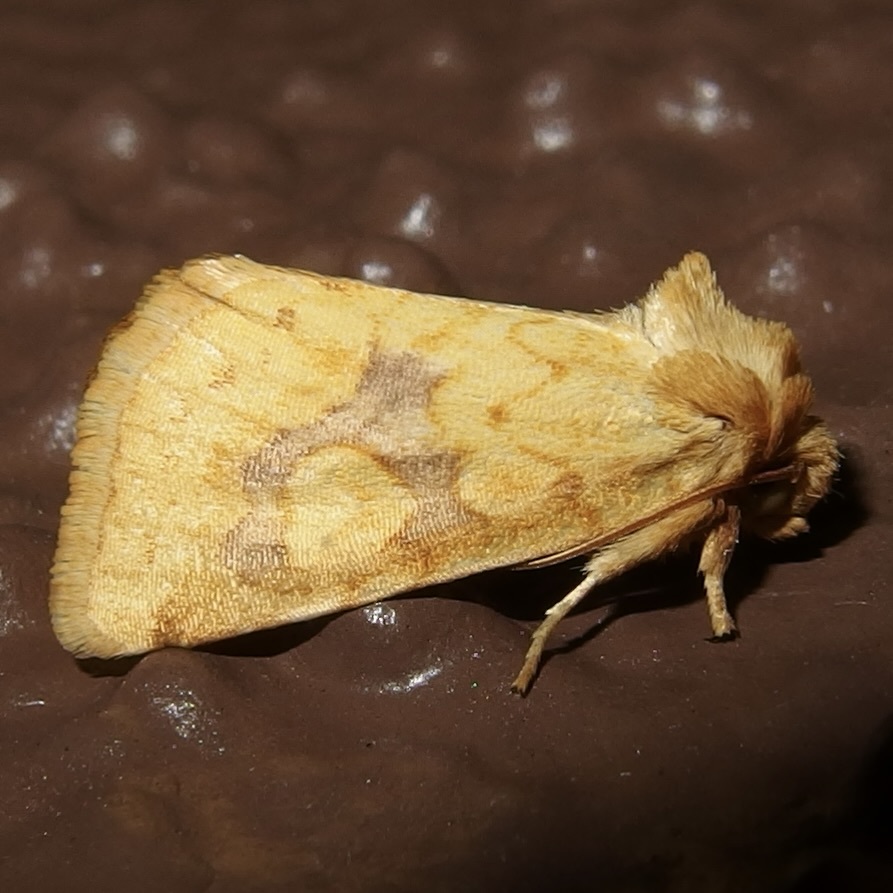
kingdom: Animalia
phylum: Arthropoda
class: Insecta
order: Lepidoptera
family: Noctuidae
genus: Nocloa
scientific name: Nocloa cordova
